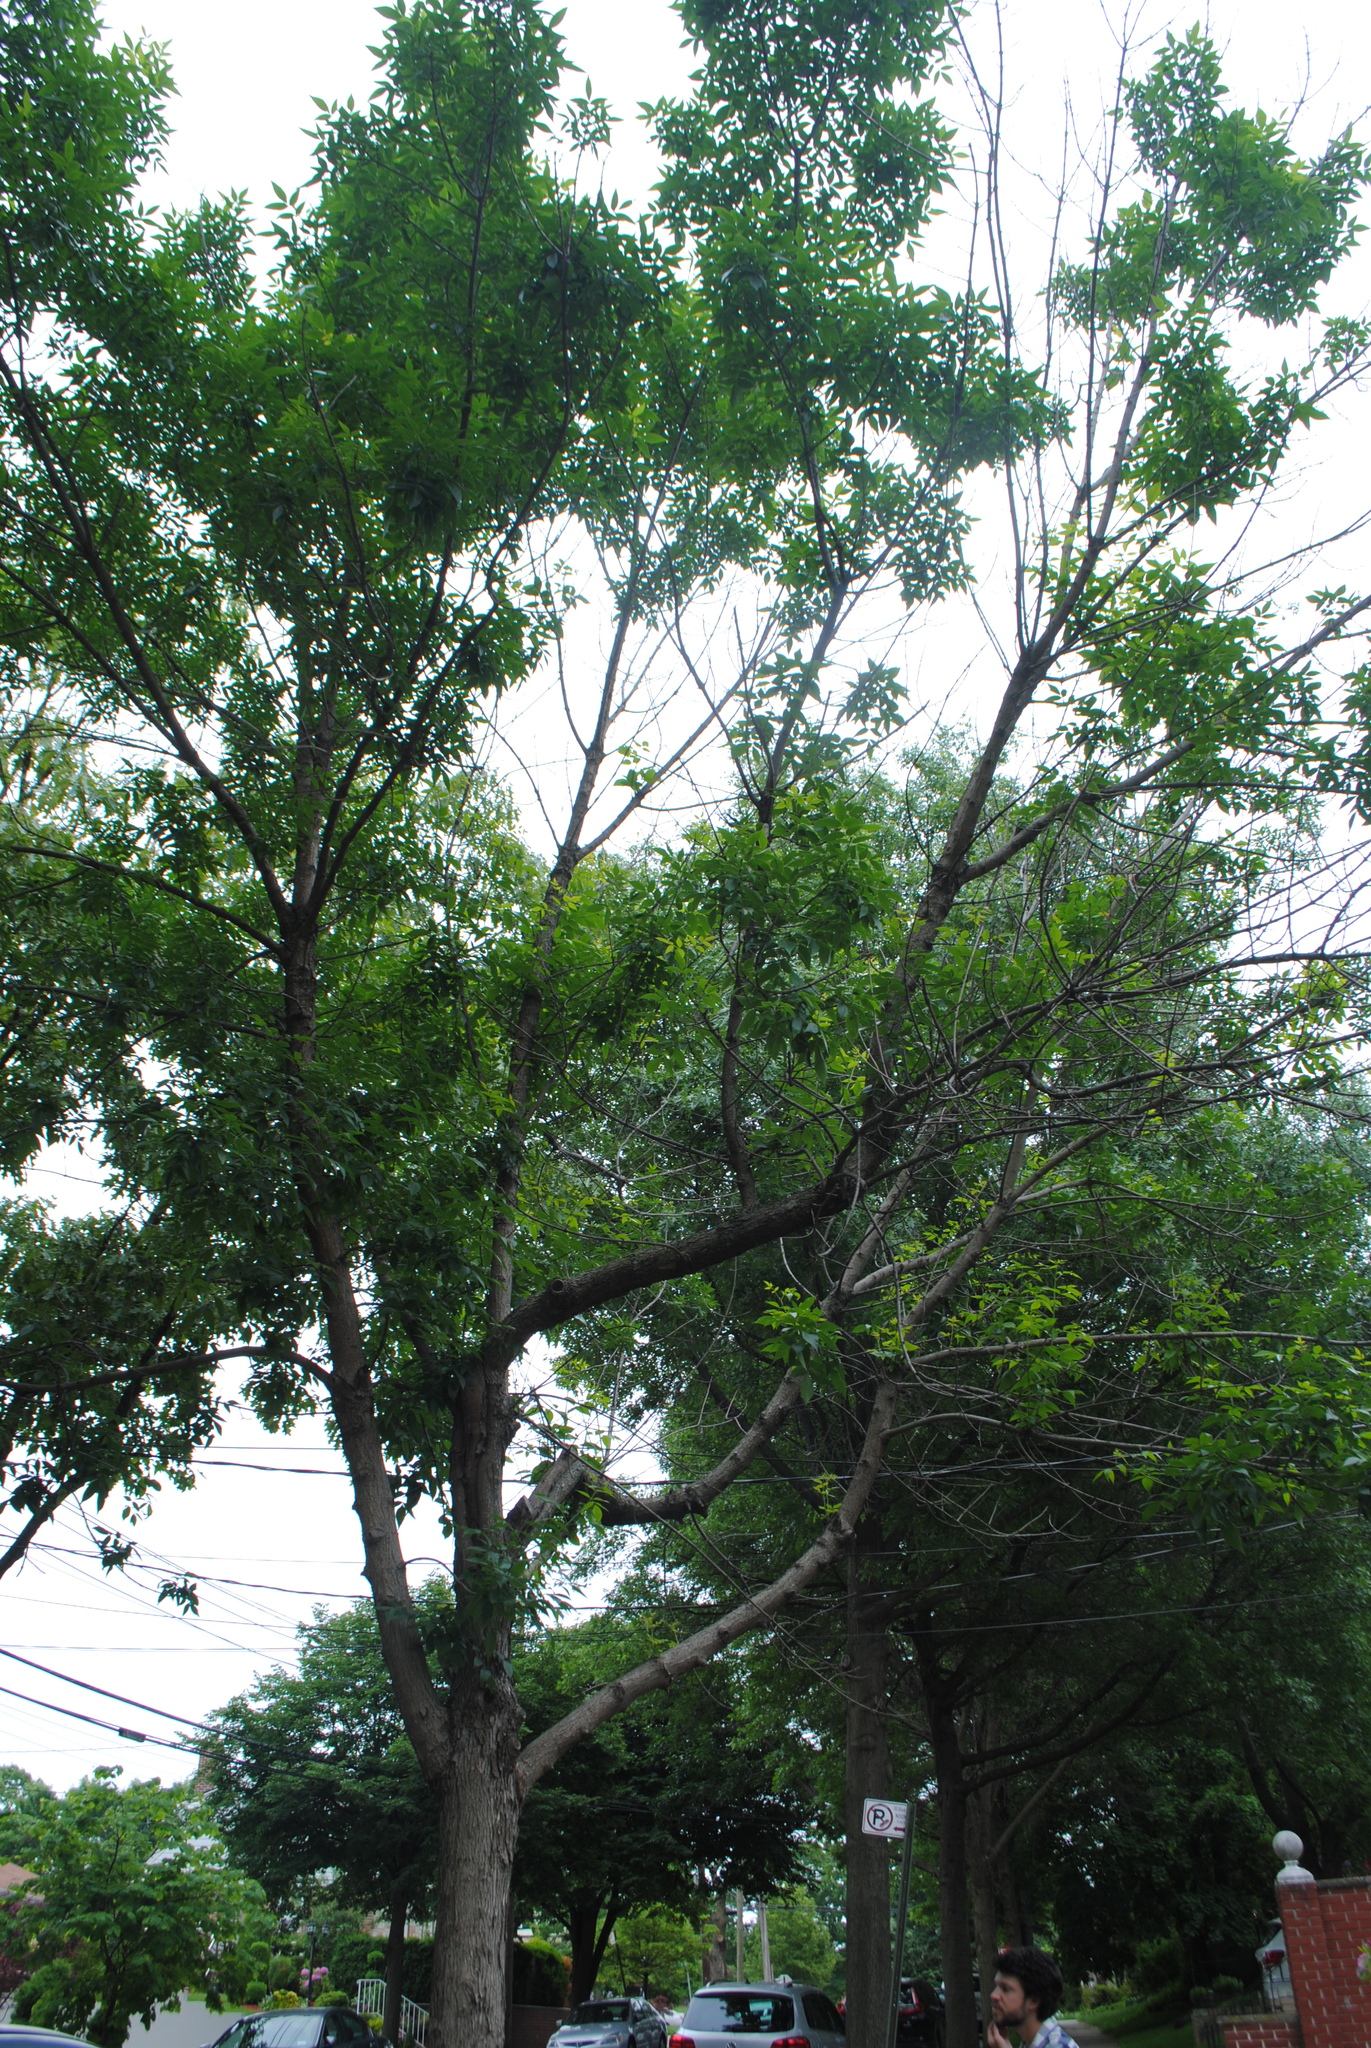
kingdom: Animalia
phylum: Arthropoda
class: Insecta
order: Coleoptera
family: Buprestidae
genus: Agrilus
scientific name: Agrilus planipennis
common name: Emerald ash borer
